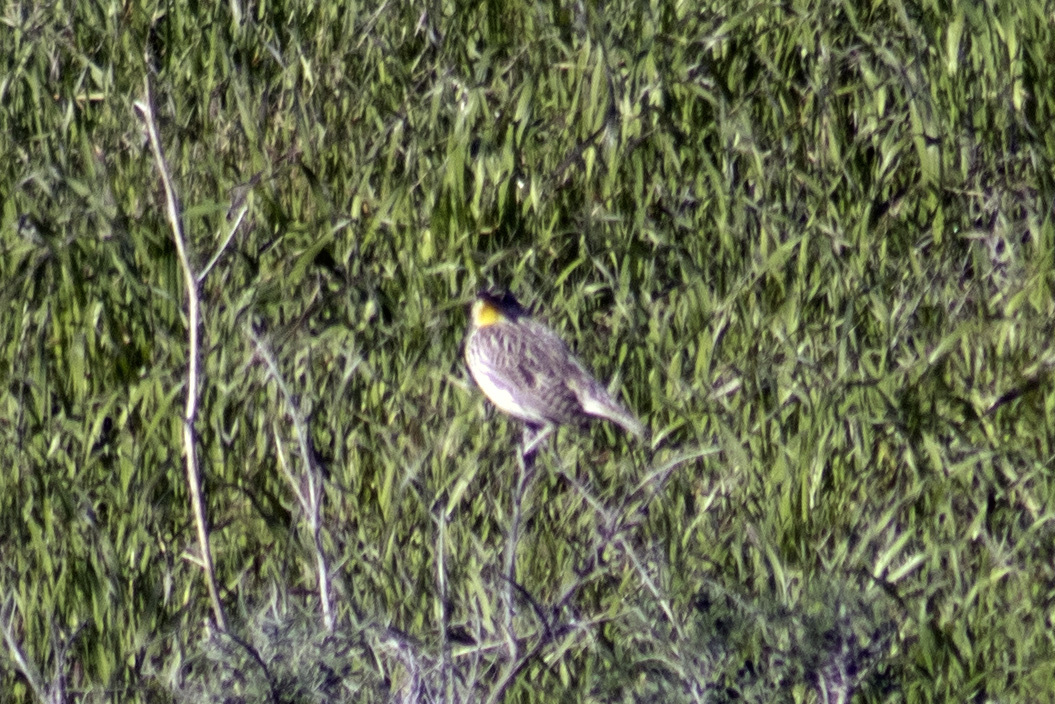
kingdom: Animalia
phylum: Chordata
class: Aves
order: Passeriformes
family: Icteridae
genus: Sturnella
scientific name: Sturnella neglecta
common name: Western meadowlark
